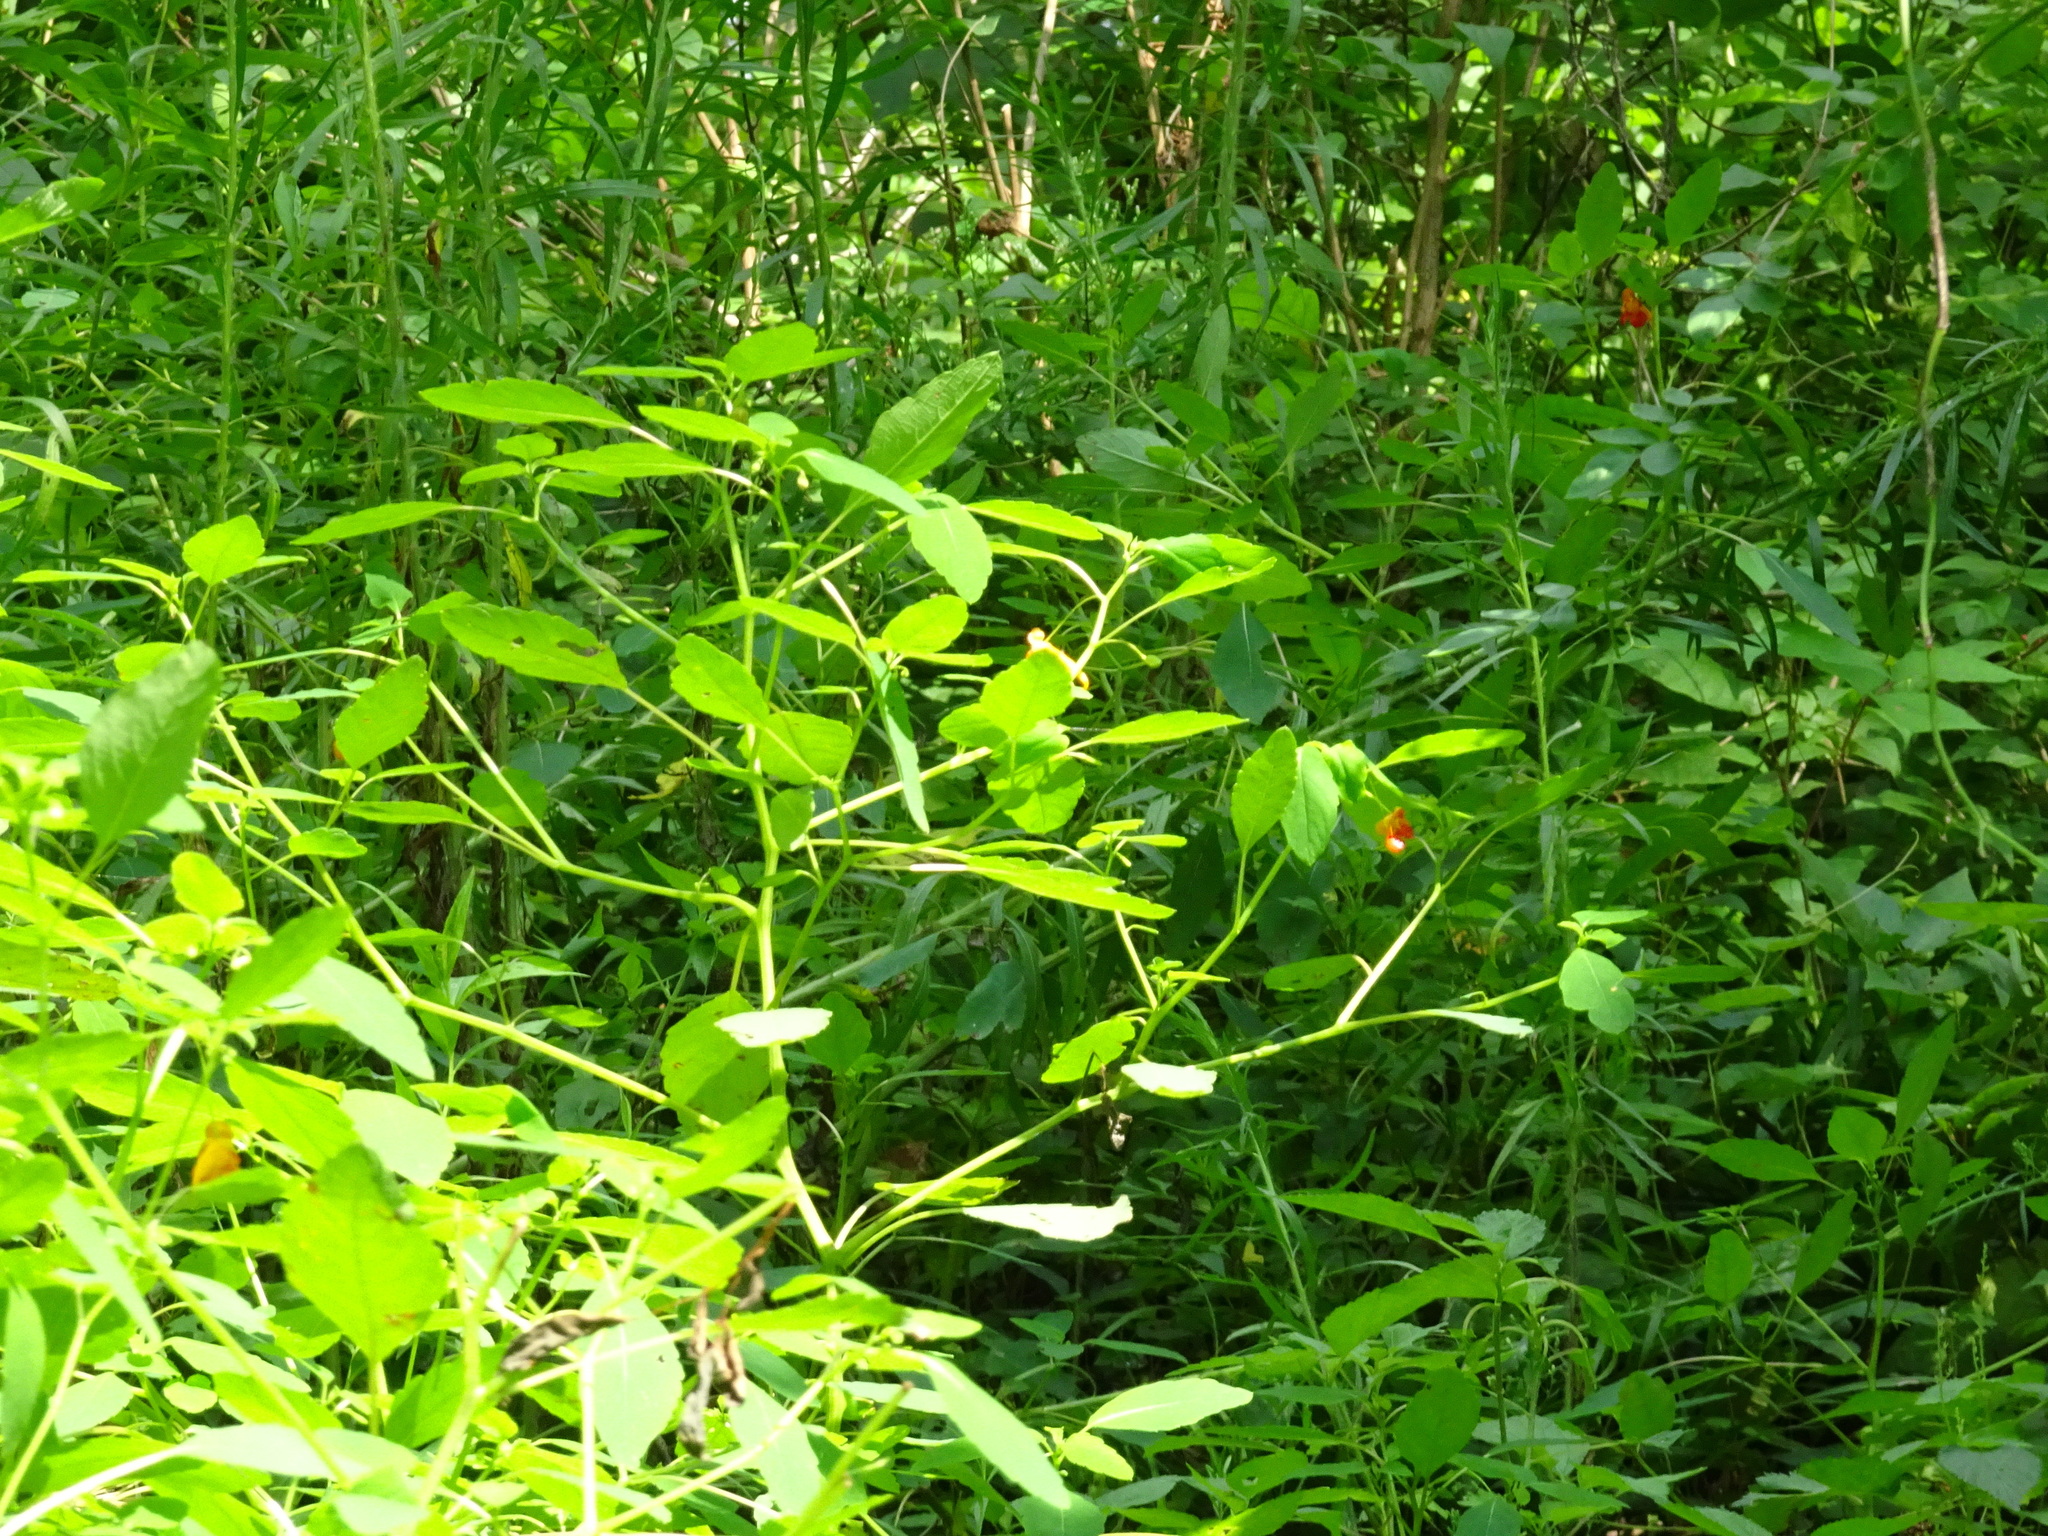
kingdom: Plantae
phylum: Tracheophyta
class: Magnoliopsida
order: Ericales
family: Balsaminaceae
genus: Impatiens
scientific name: Impatiens capensis
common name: Orange balsam
